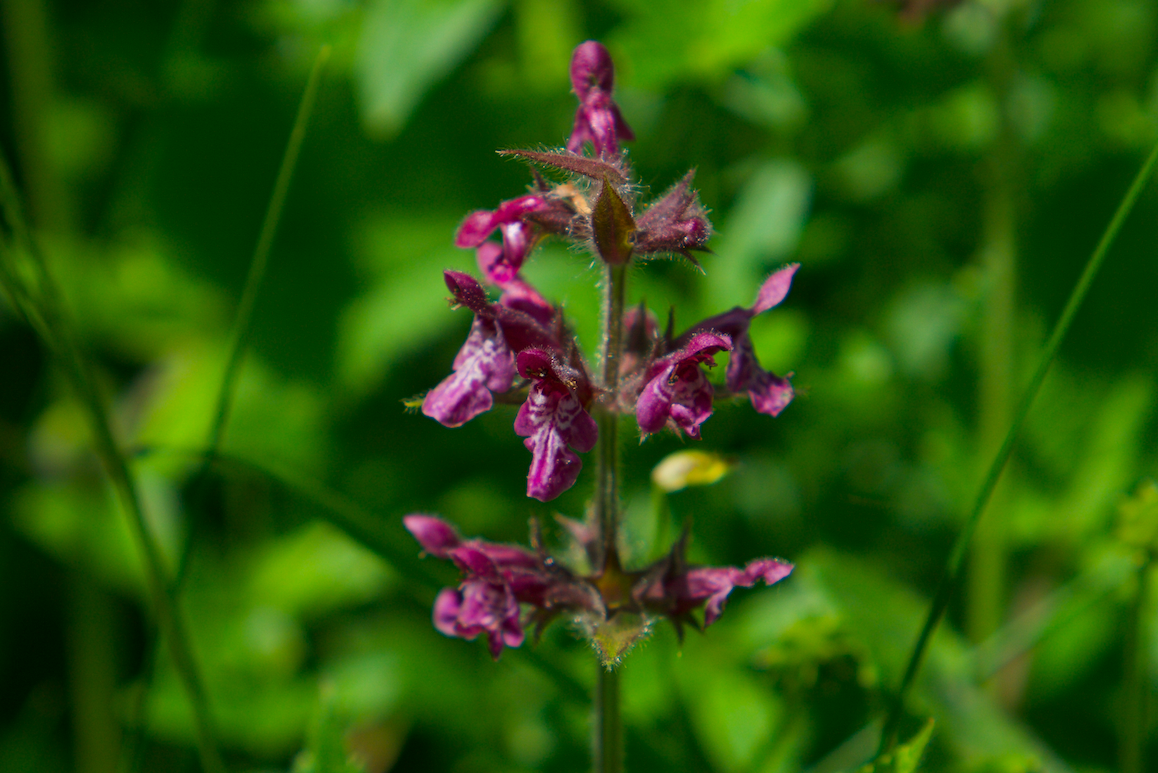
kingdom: Plantae
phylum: Tracheophyta
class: Magnoliopsida
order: Lamiales
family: Lamiaceae
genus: Stachys
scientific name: Stachys sylvatica
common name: Hedge woundwort
